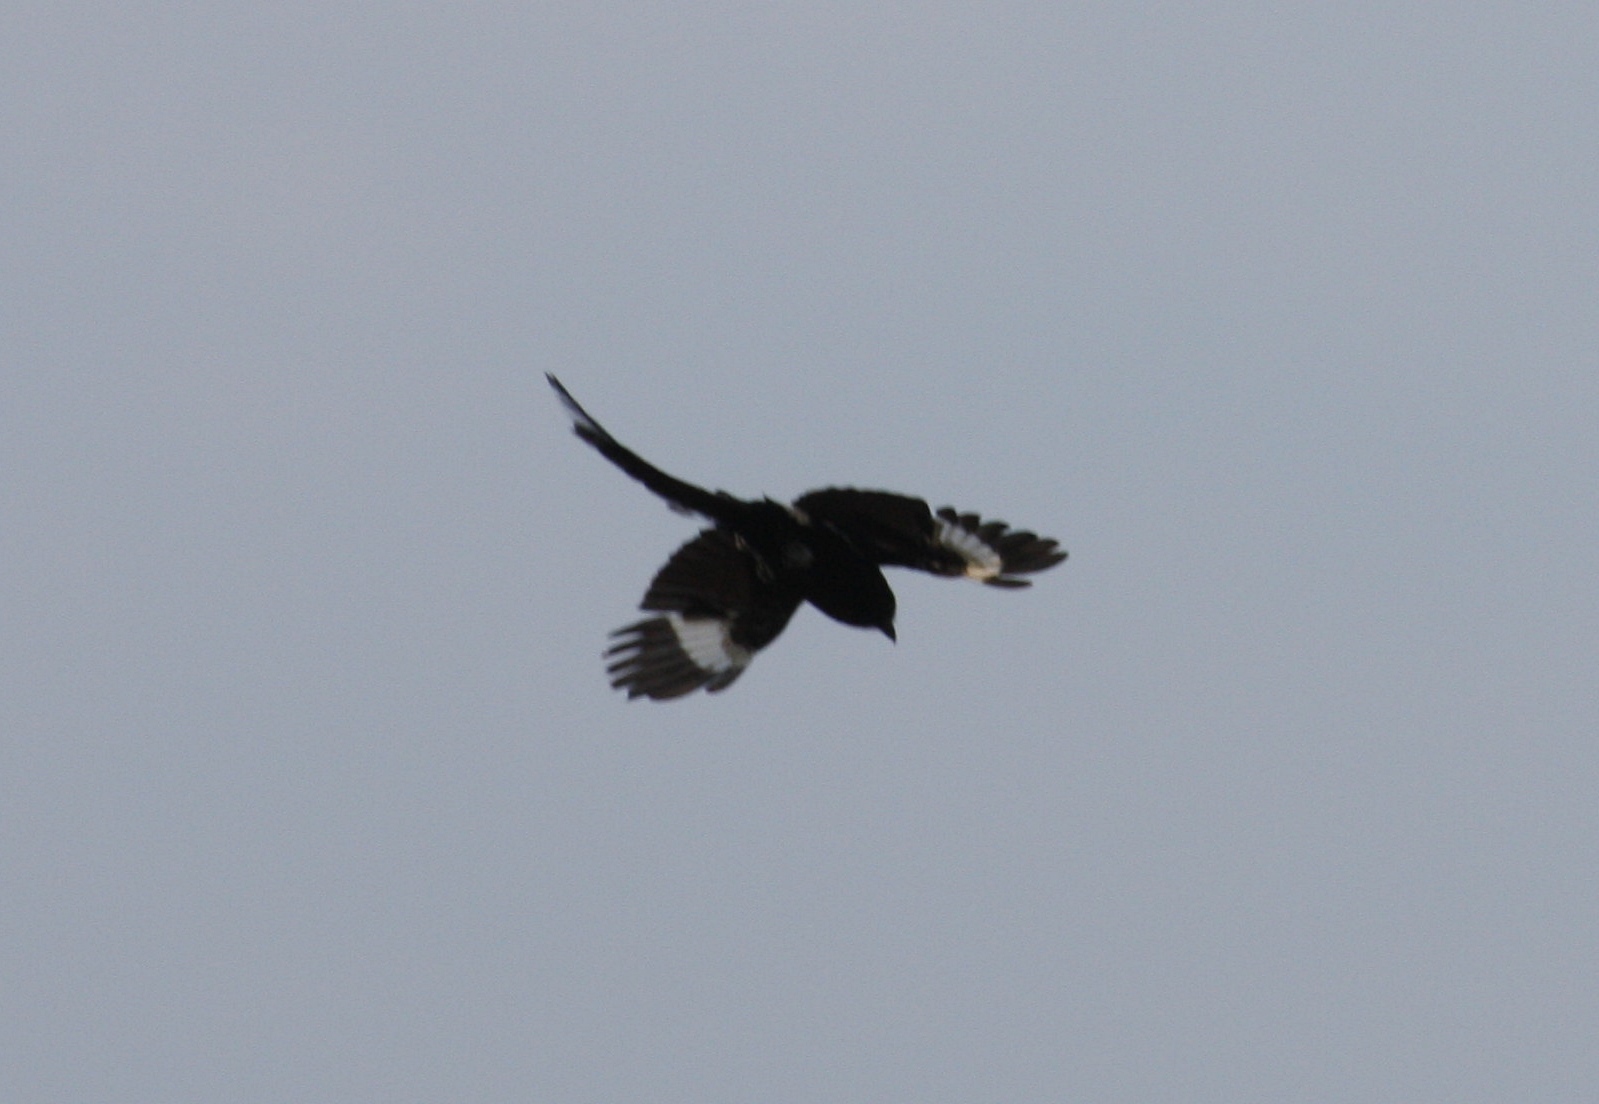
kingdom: Animalia
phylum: Chordata
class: Aves
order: Passeriformes
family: Laniidae
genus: Urolestes
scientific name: Urolestes melanoleucus
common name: Magpie shrike
